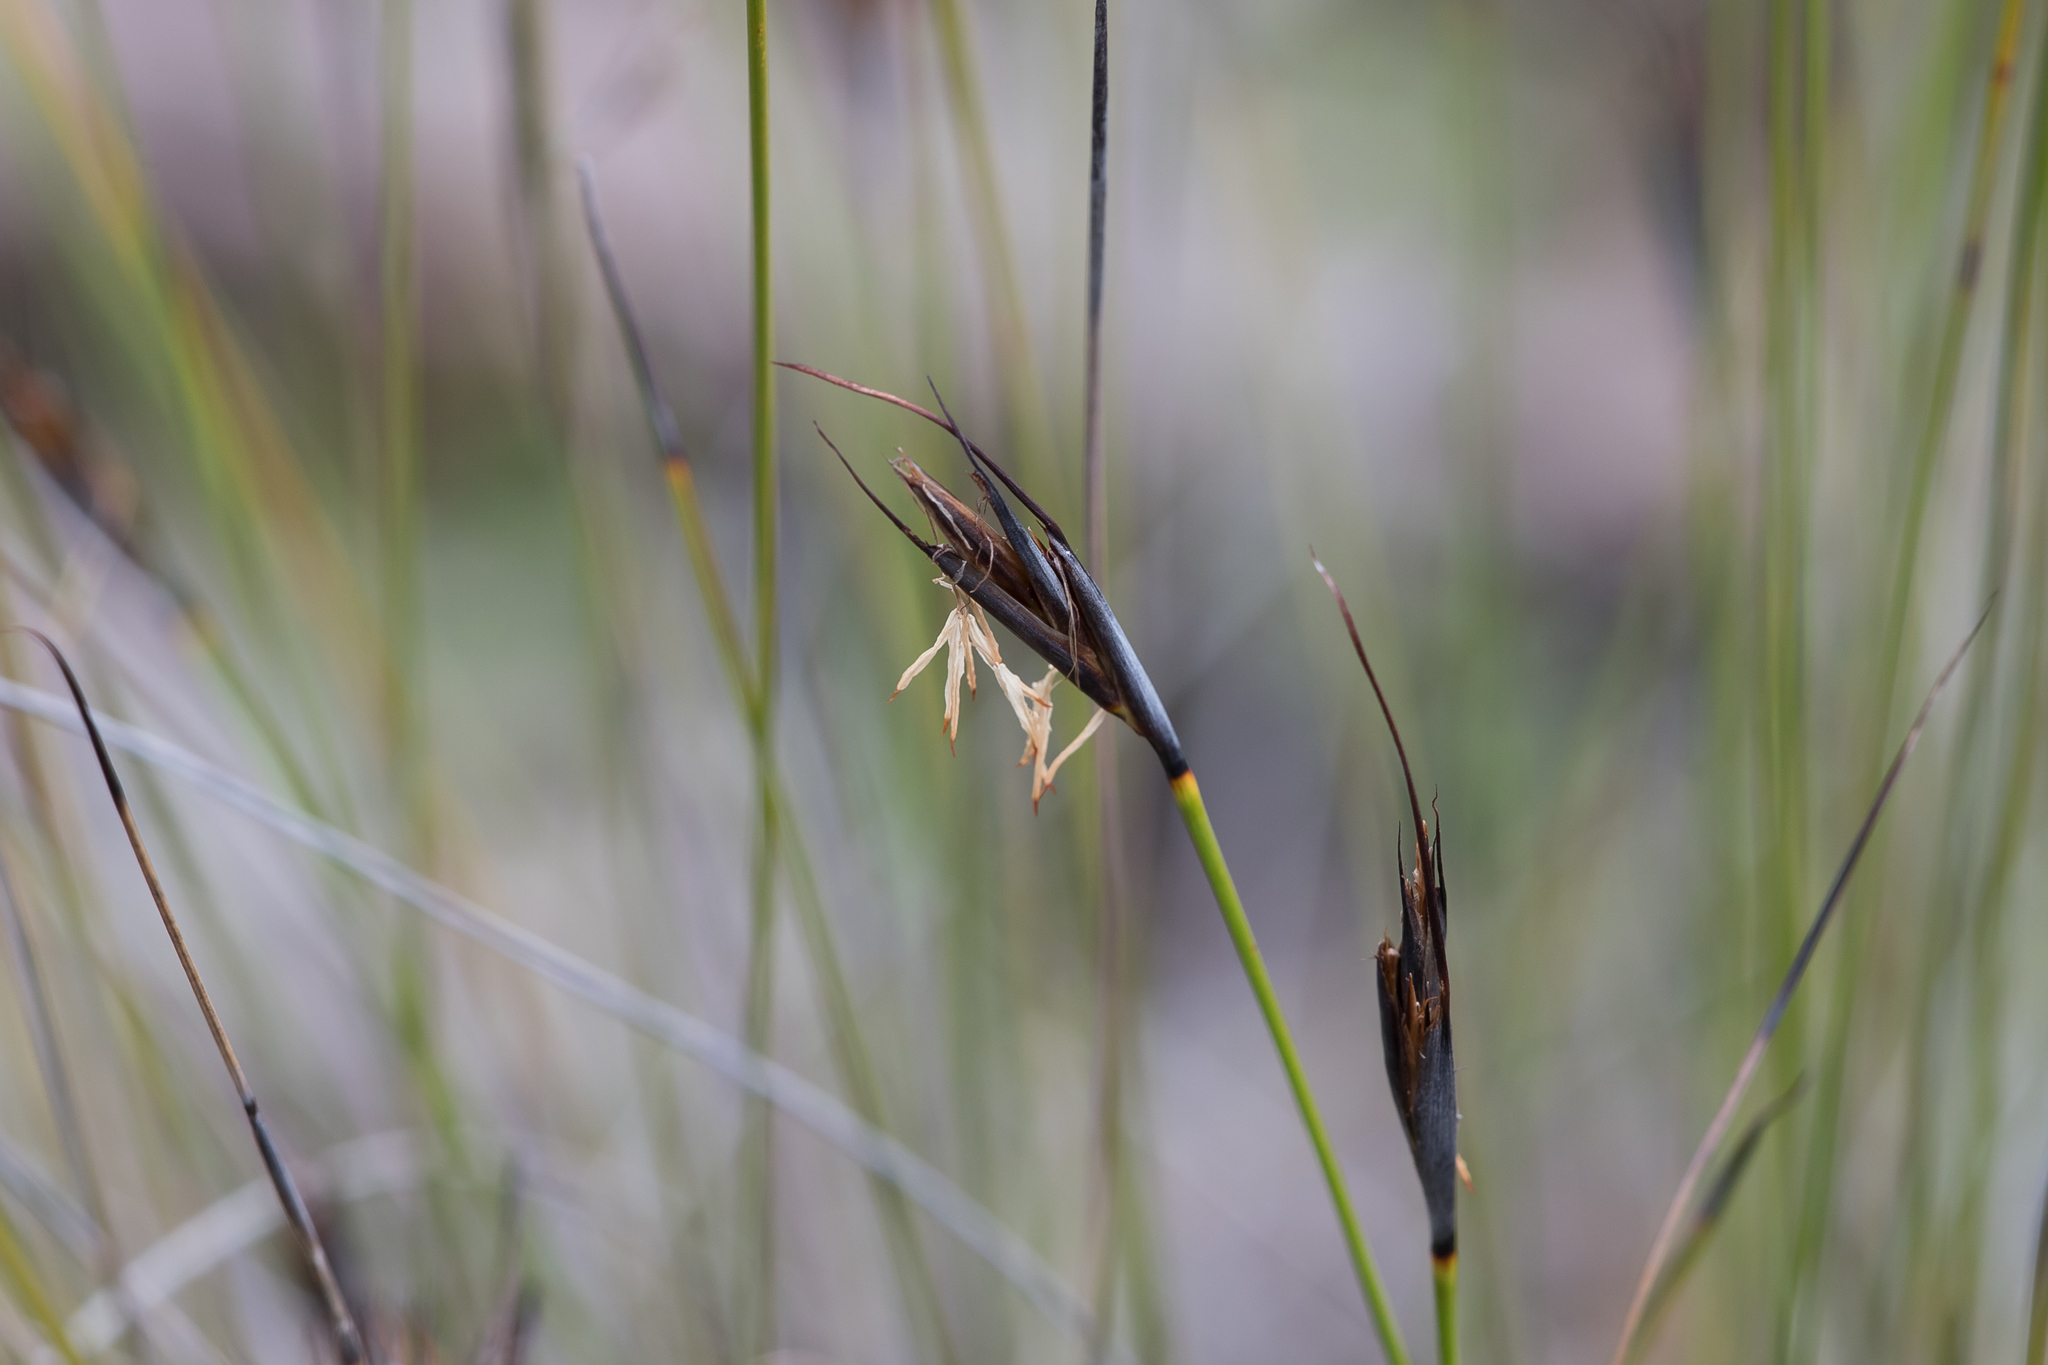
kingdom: Plantae
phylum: Tracheophyta
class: Liliopsida
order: Poales
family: Cyperaceae
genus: Lepidosperma
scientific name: Lepidosperma carphoides
